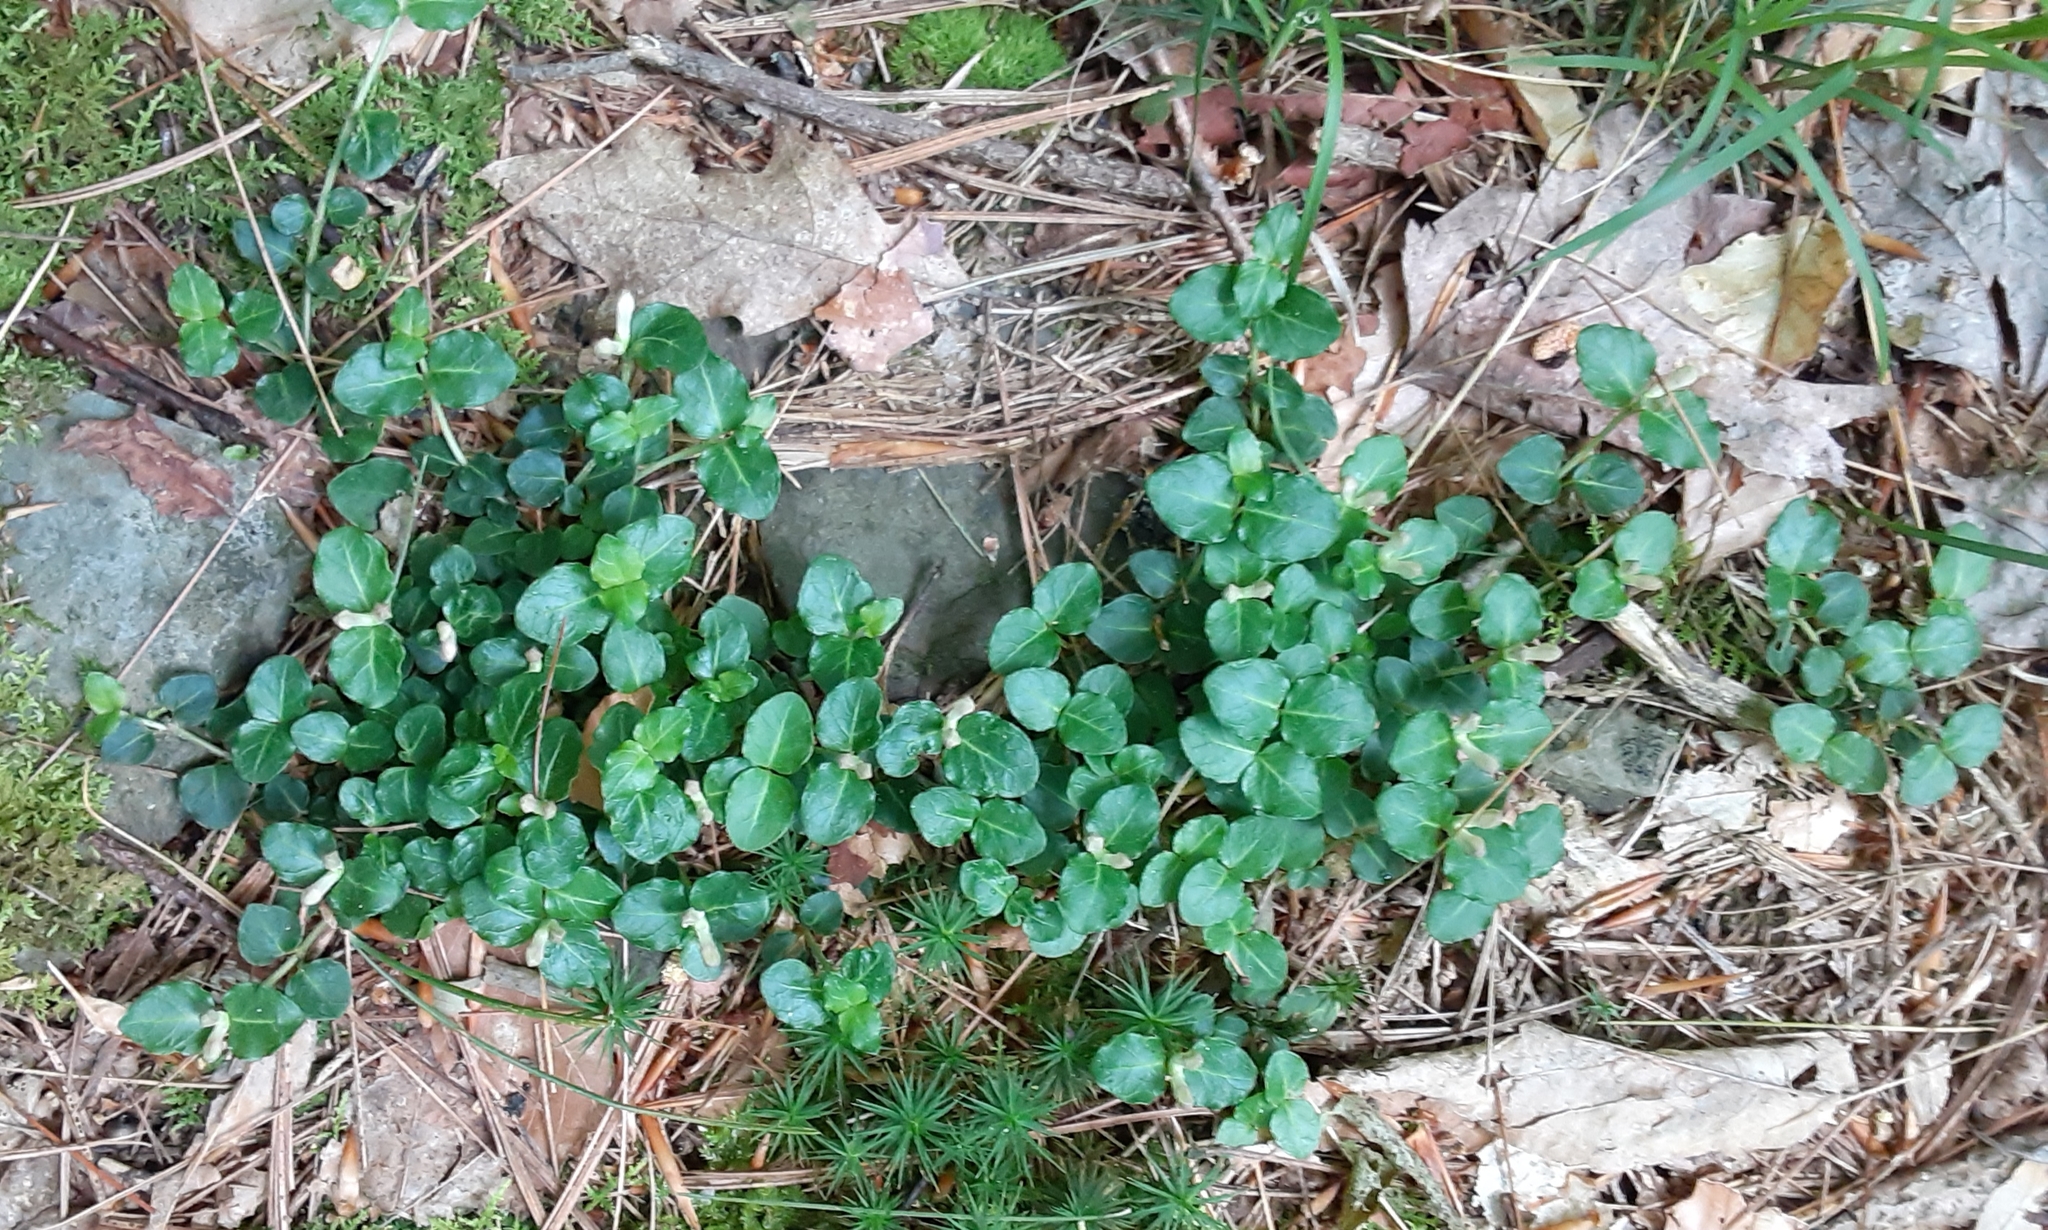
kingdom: Plantae
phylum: Tracheophyta
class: Magnoliopsida
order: Gentianales
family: Rubiaceae
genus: Mitchella
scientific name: Mitchella repens
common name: Partridge-berry
